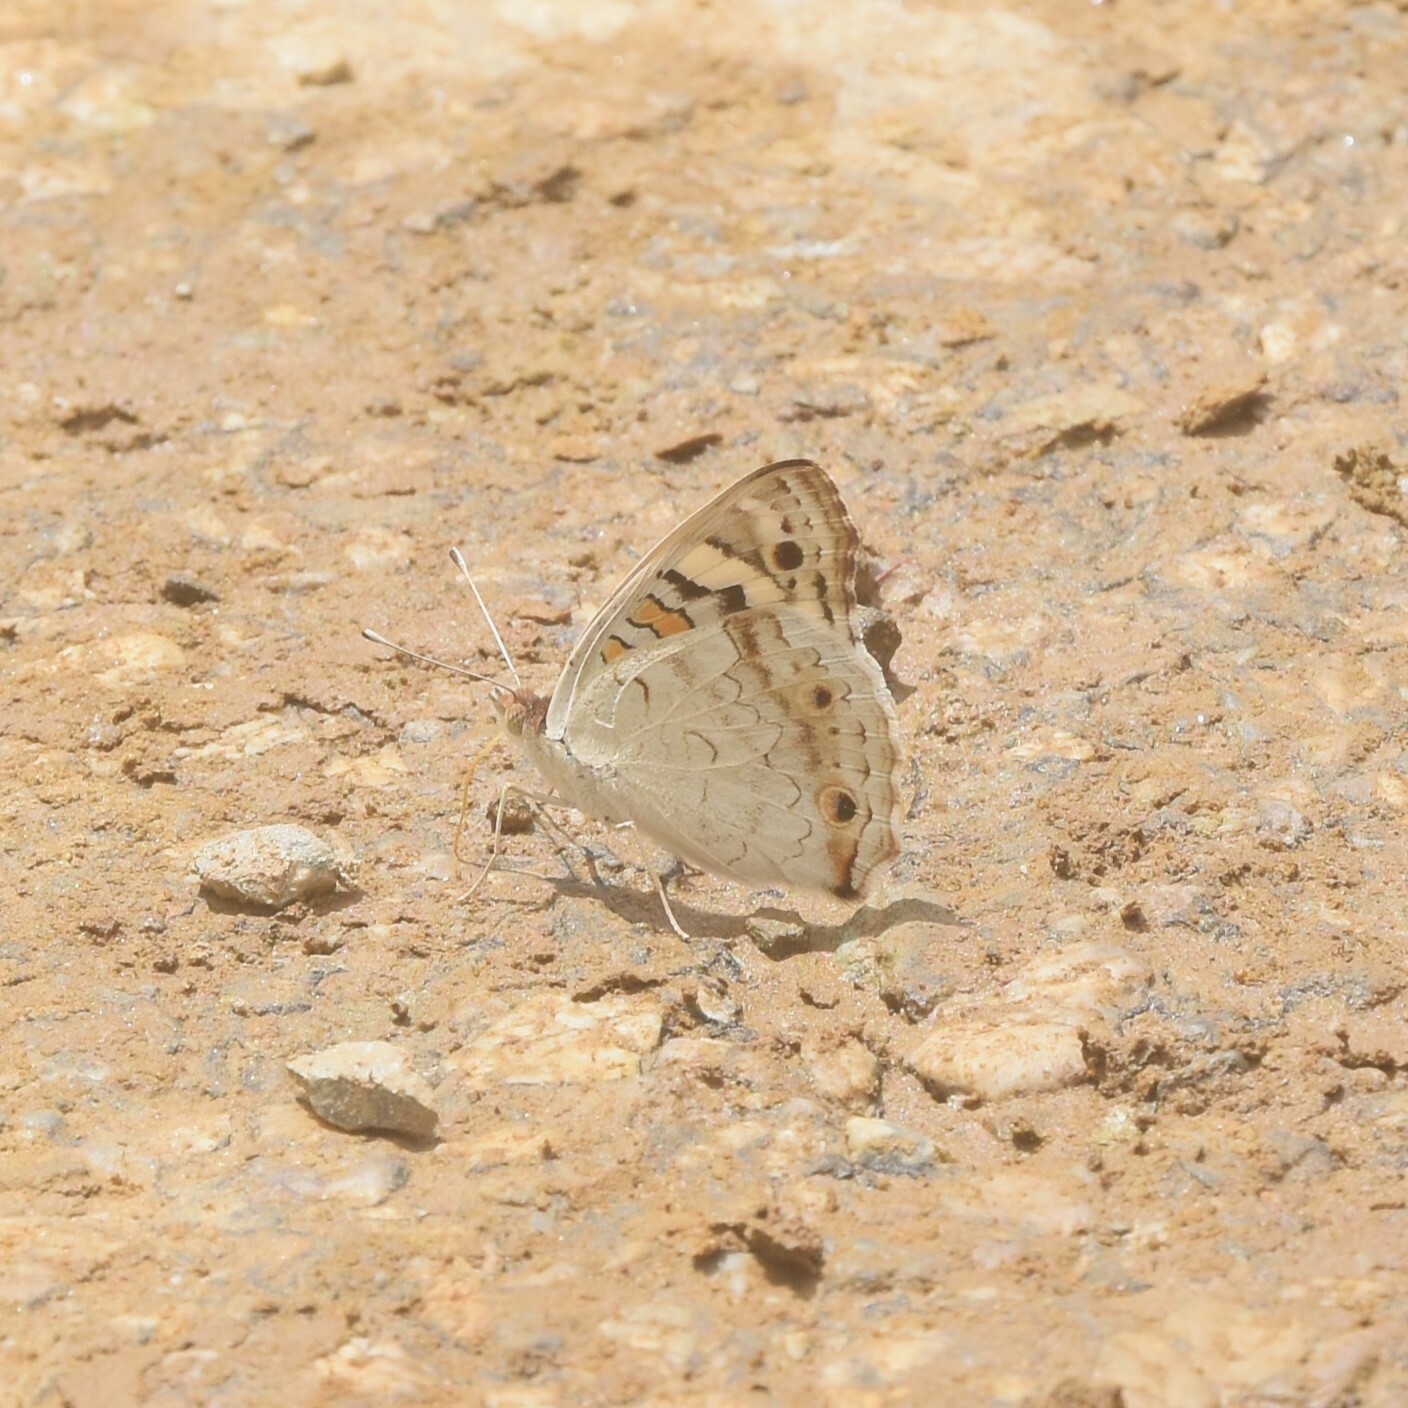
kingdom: Animalia
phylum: Arthropoda
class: Insecta
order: Lepidoptera
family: Nymphalidae
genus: Junonia
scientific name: Junonia orithya
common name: Blue pansy
